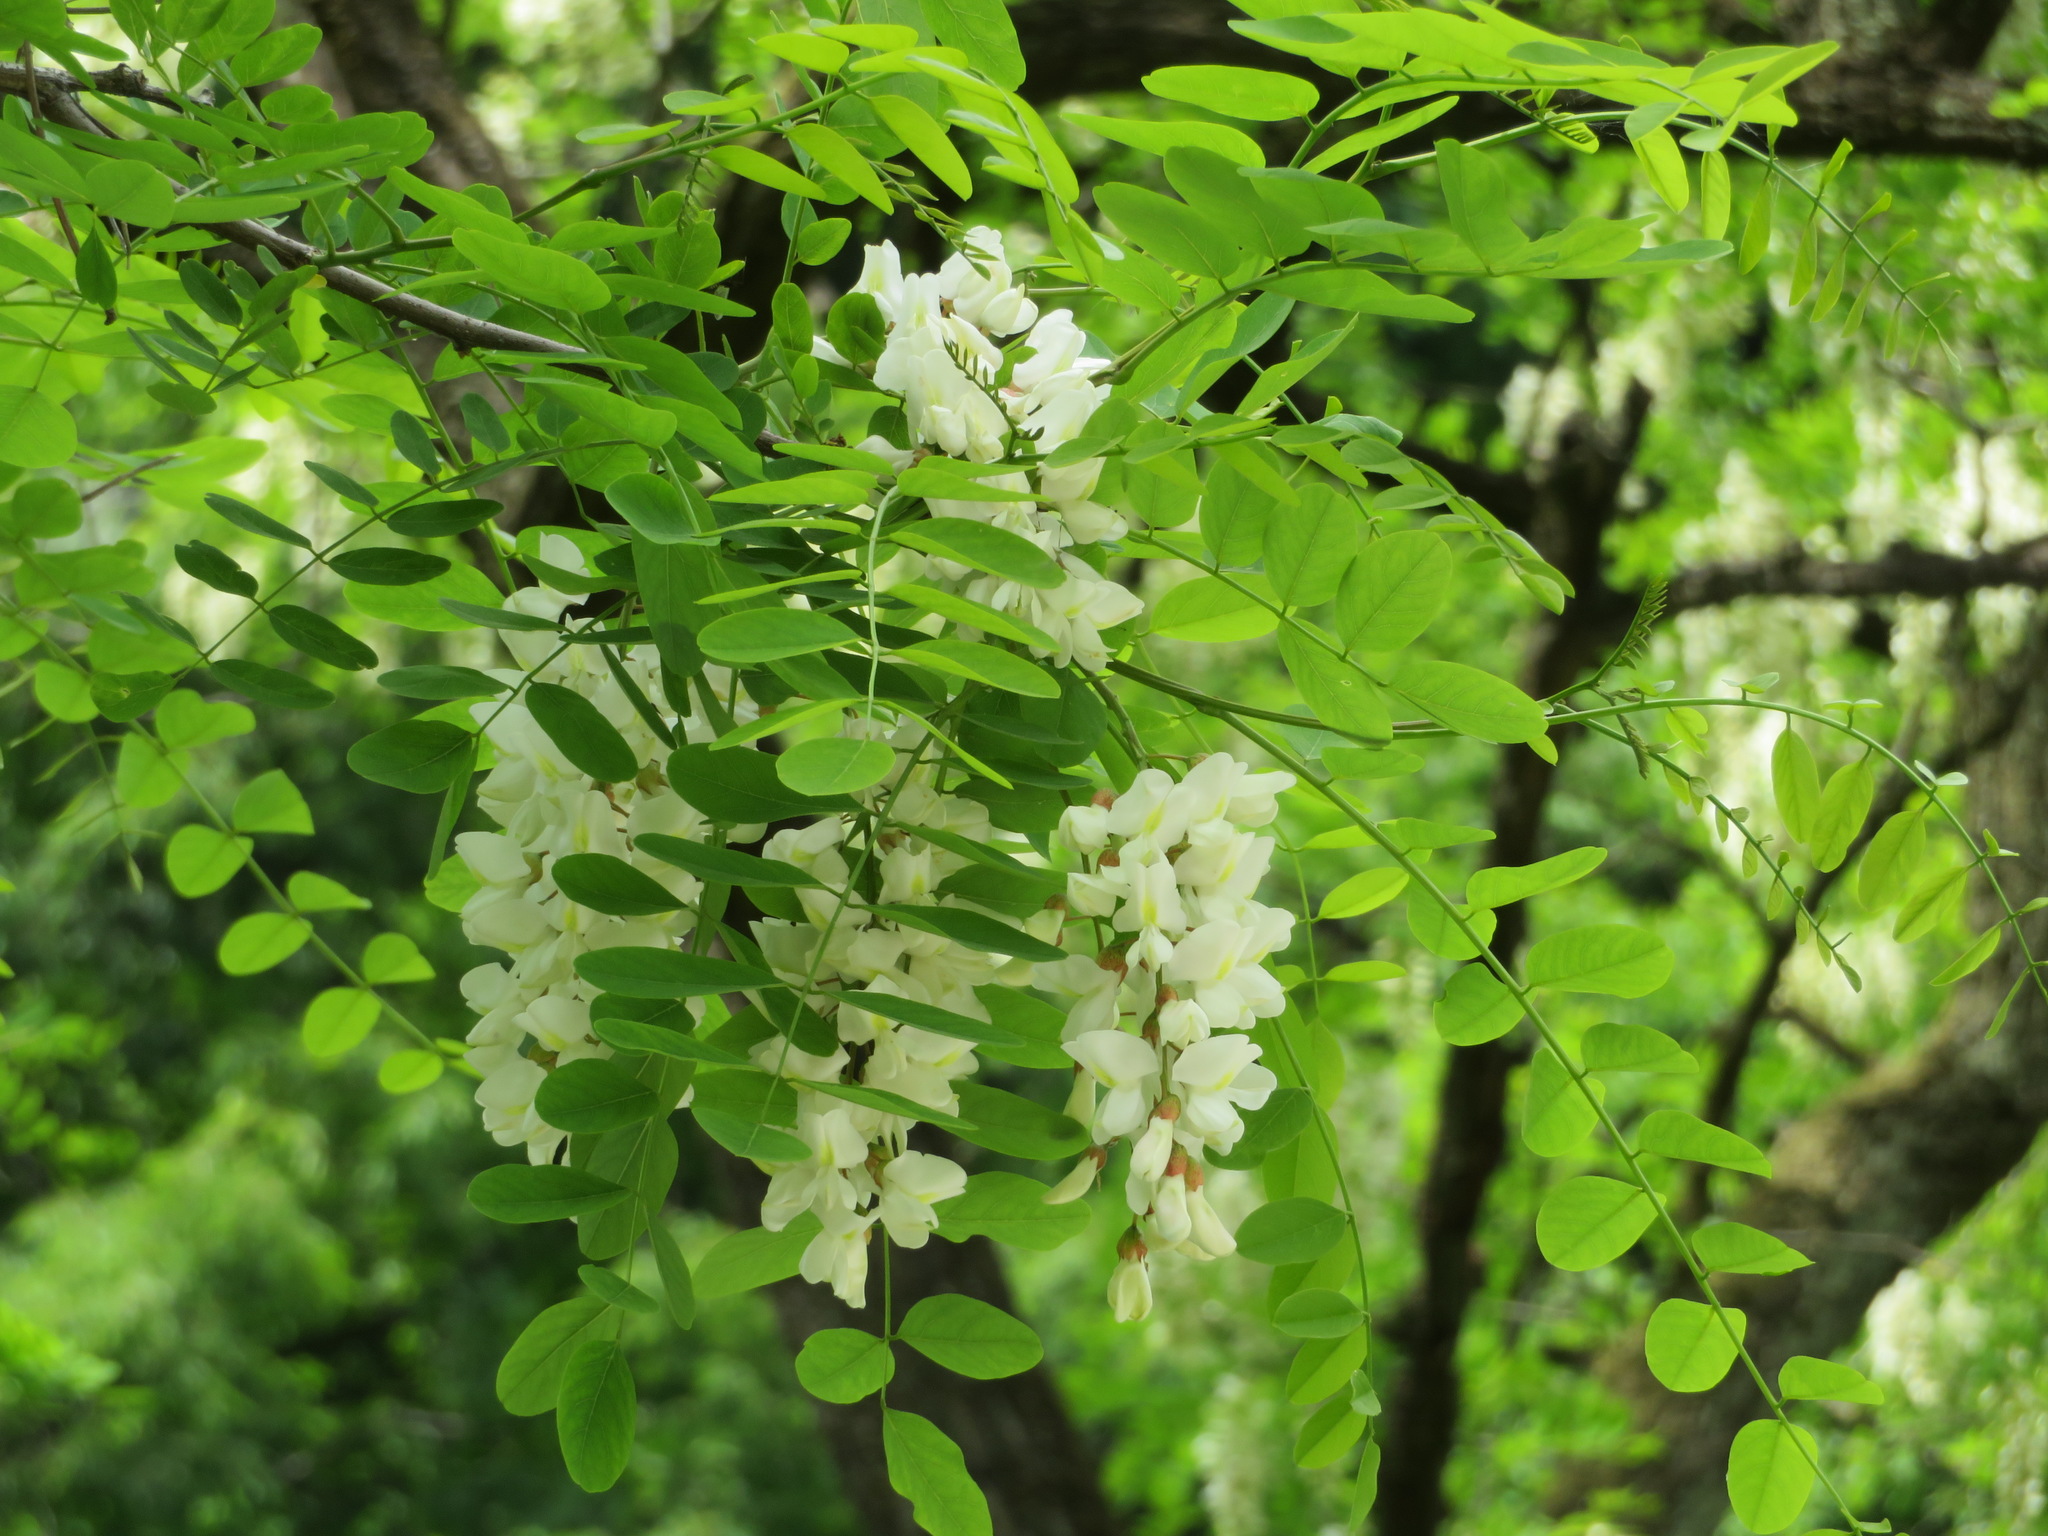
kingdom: Plantae
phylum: Tracheophyta
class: Magnoliopsida
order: Fabales
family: Fabaceae
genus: Robinia
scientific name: Robinia pseudoacacia
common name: Black locust
